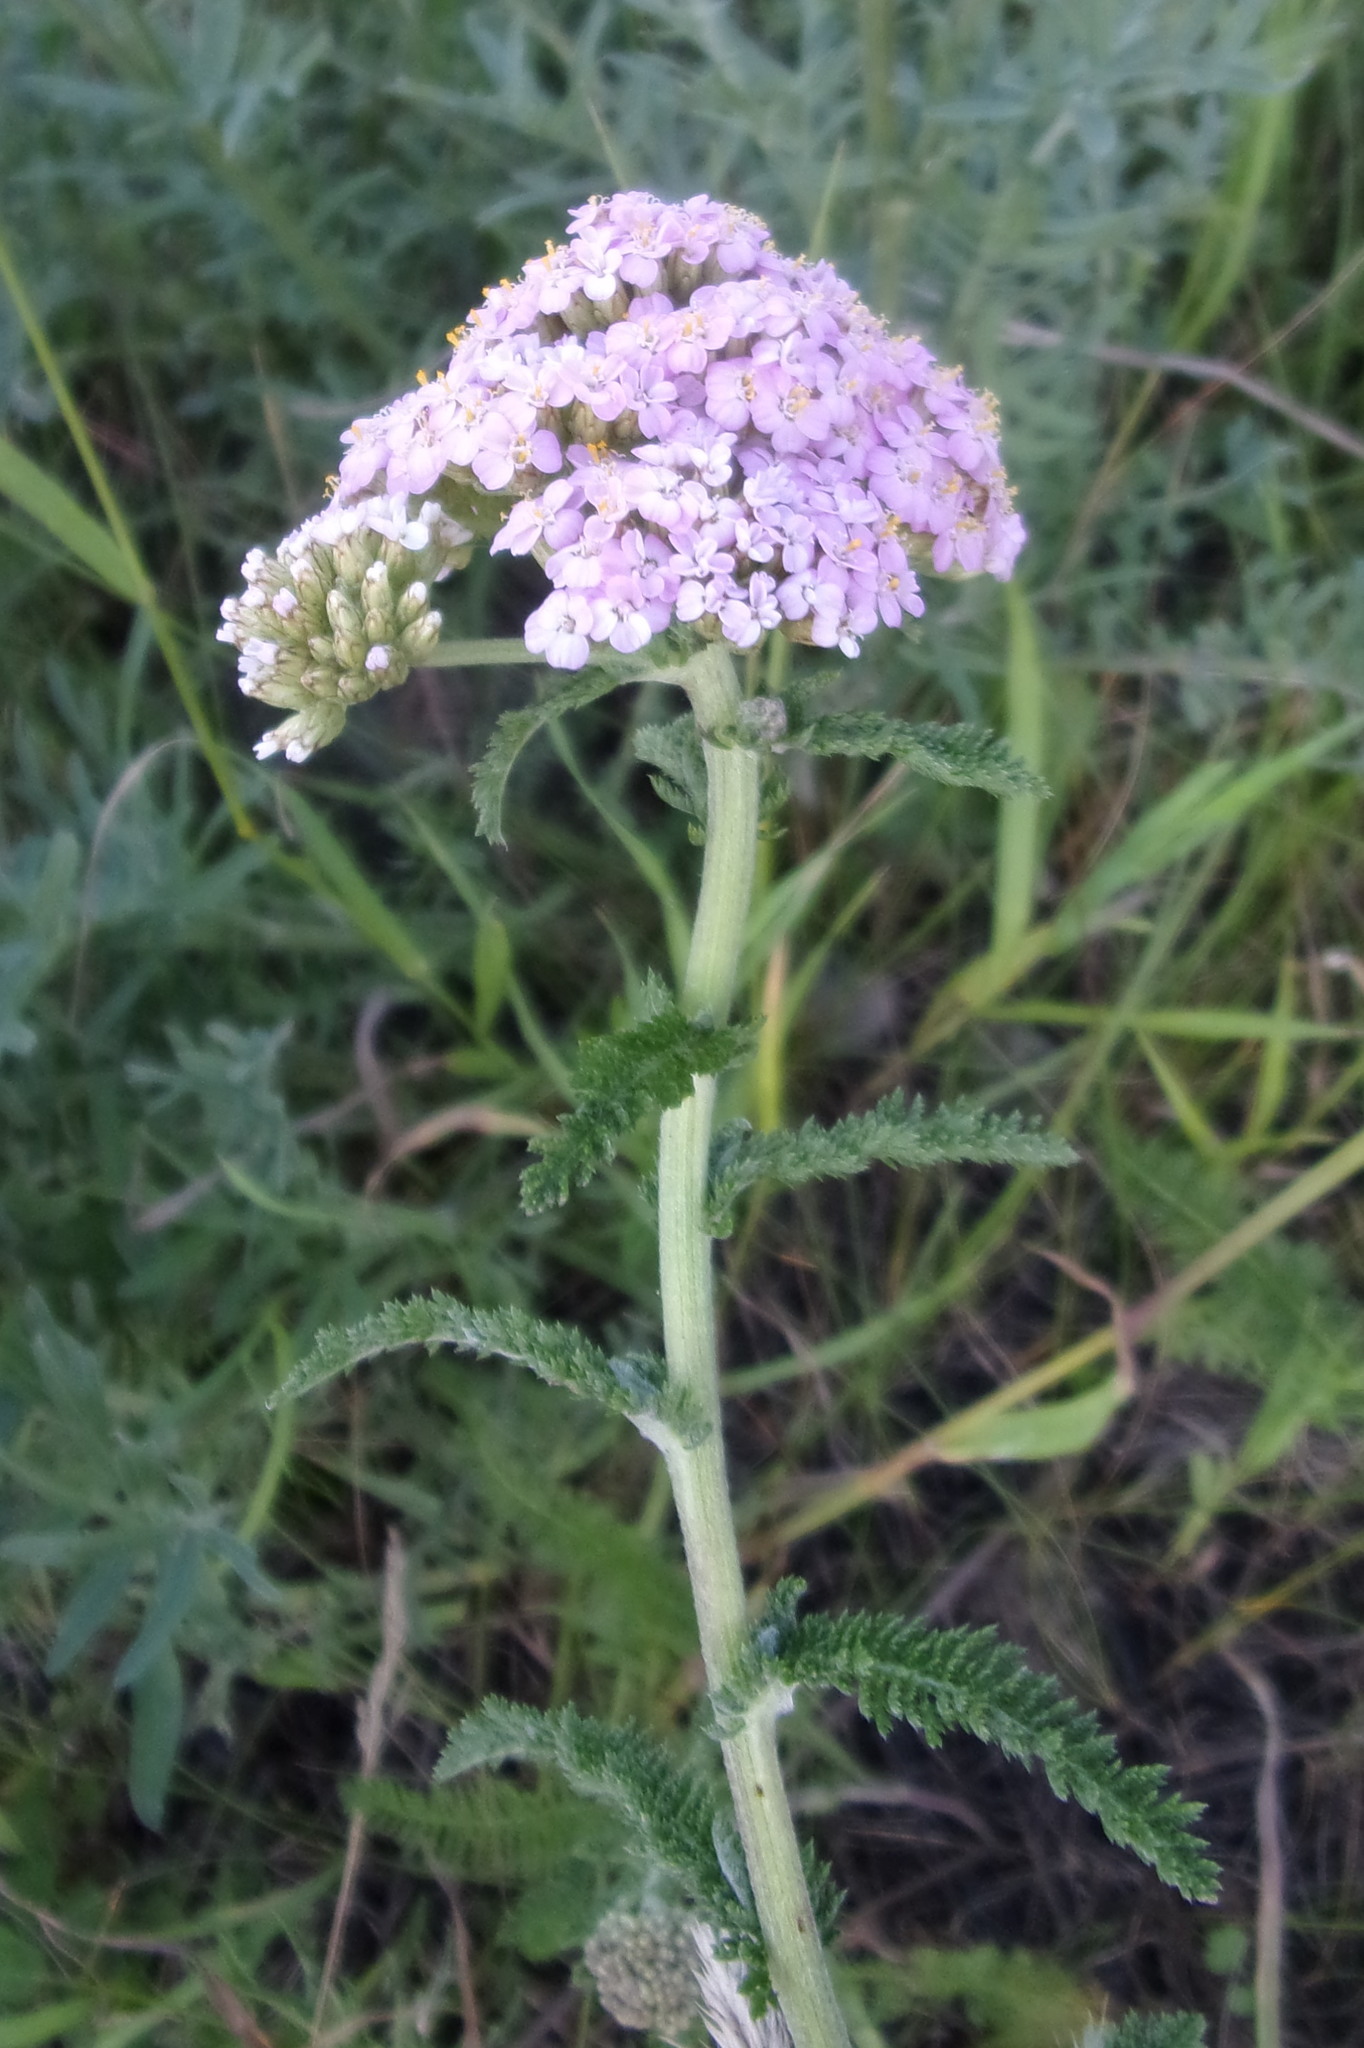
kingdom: Plantae
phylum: Tracheophyta
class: Magnoliopsida
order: Asterales
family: Asteraceae
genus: Achillea
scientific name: Achillea asiatica
